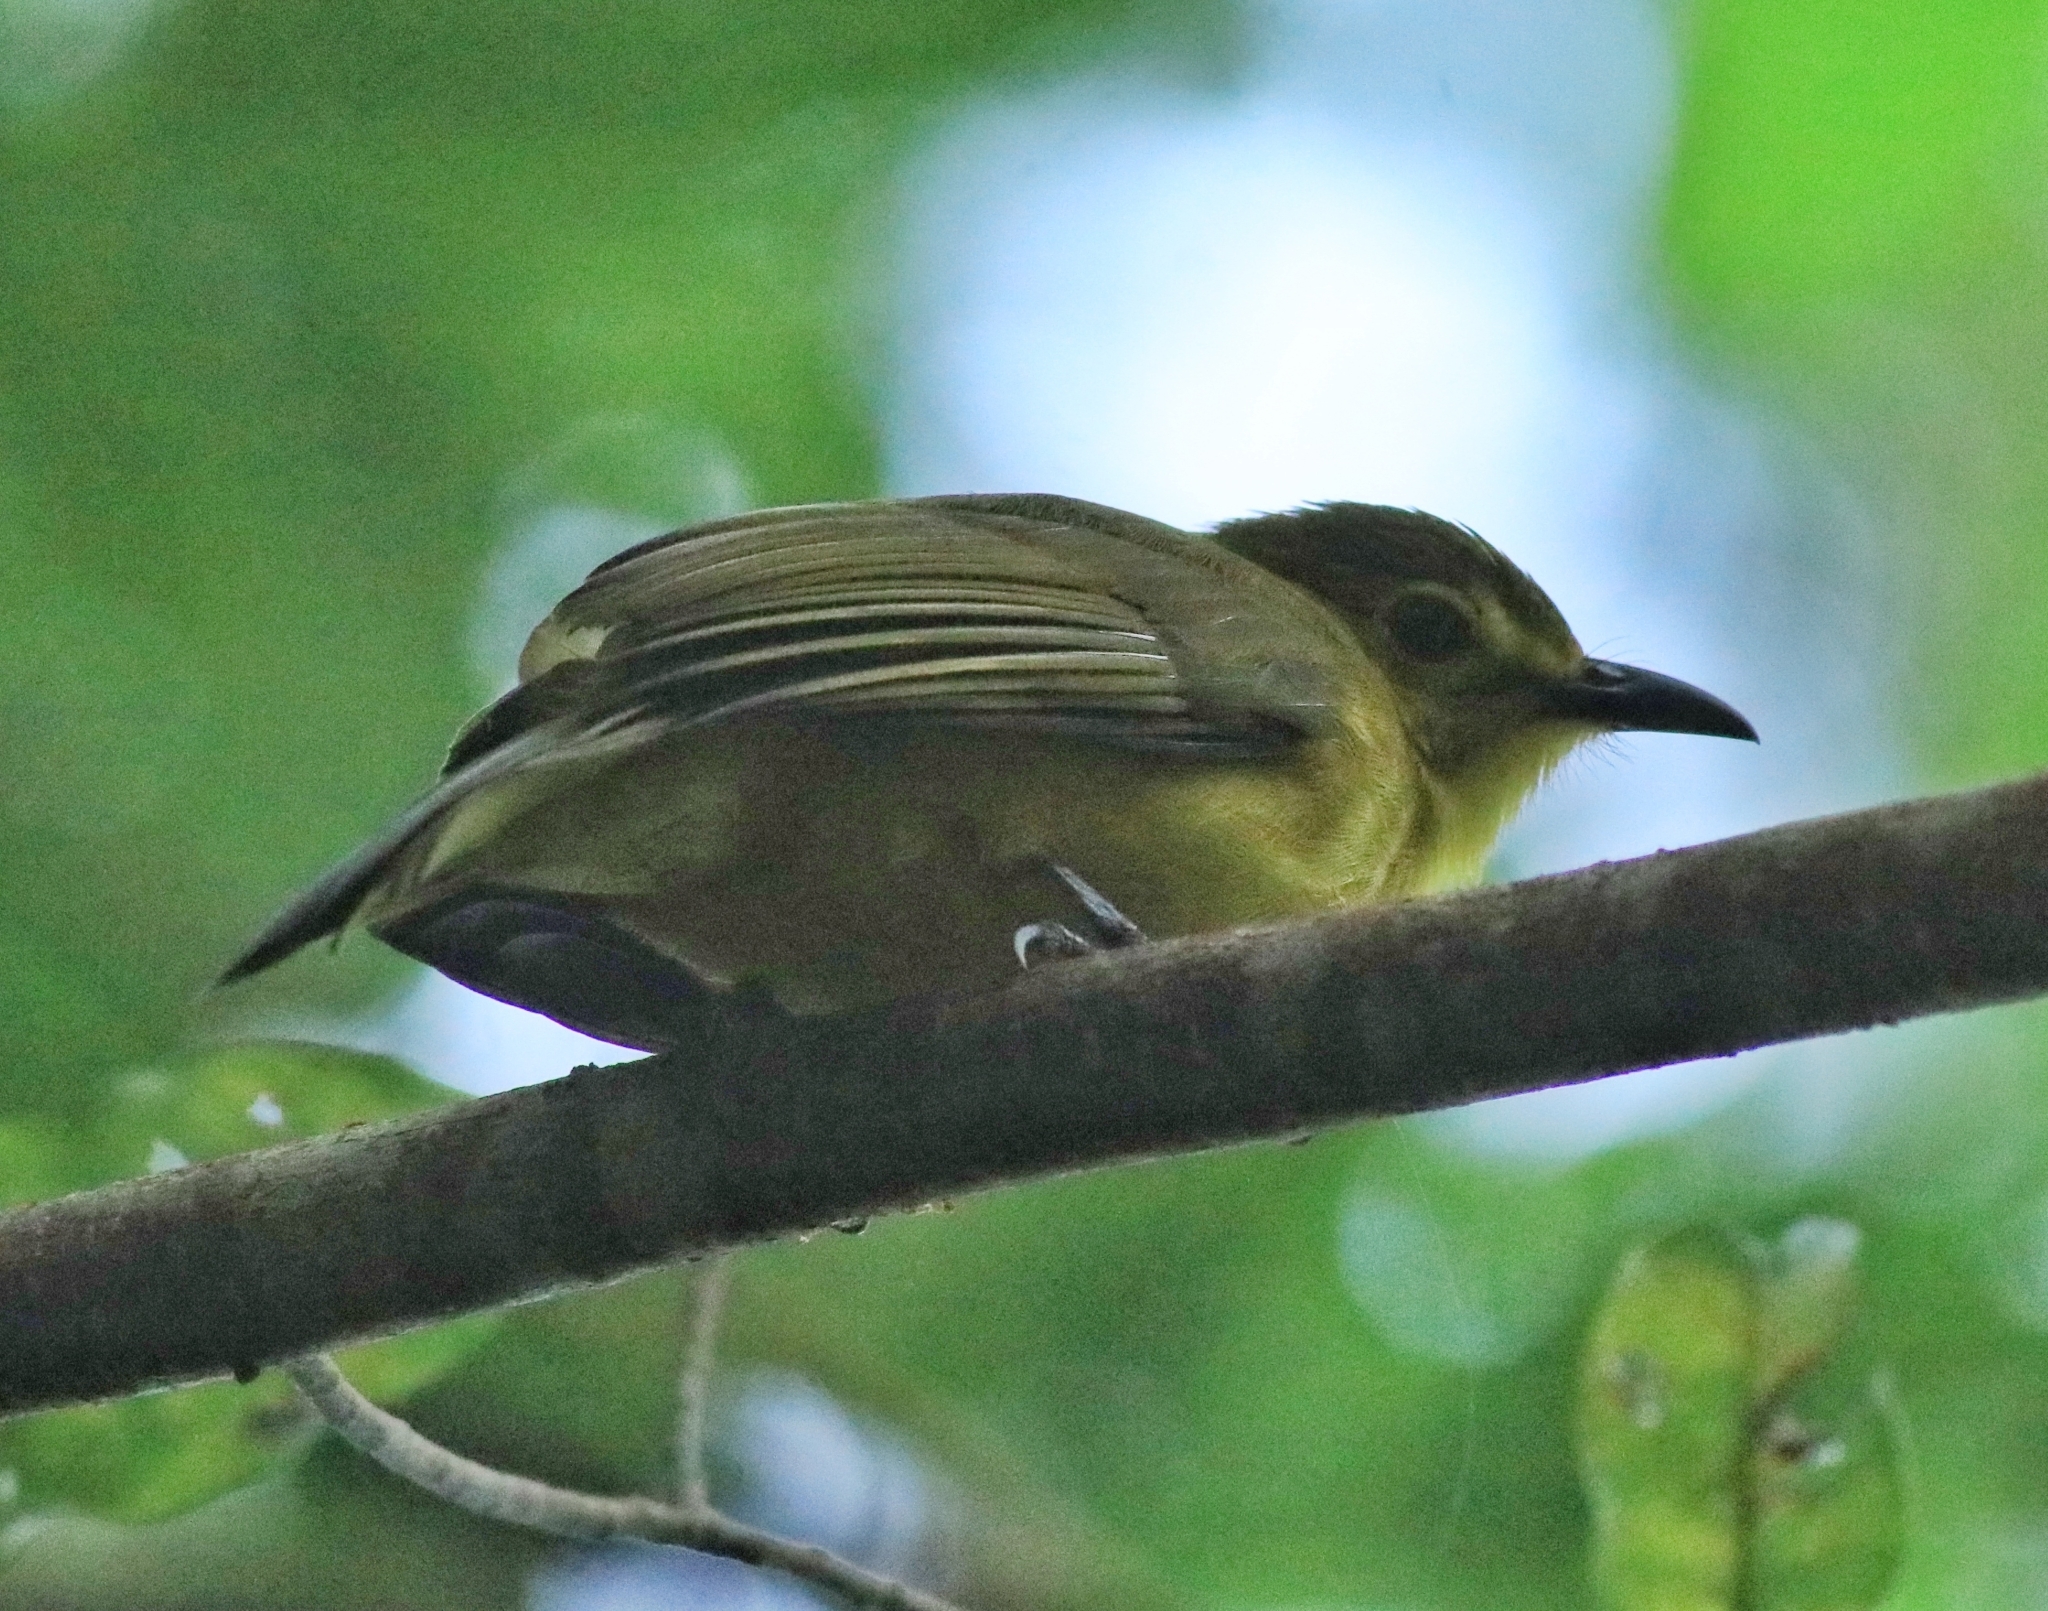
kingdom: Animalia
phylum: Chordata
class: Aves
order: Passeriformes
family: Pycnonotidae
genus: Acritillas
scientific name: Acritillas indica
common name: Yellow-browed bulbul
